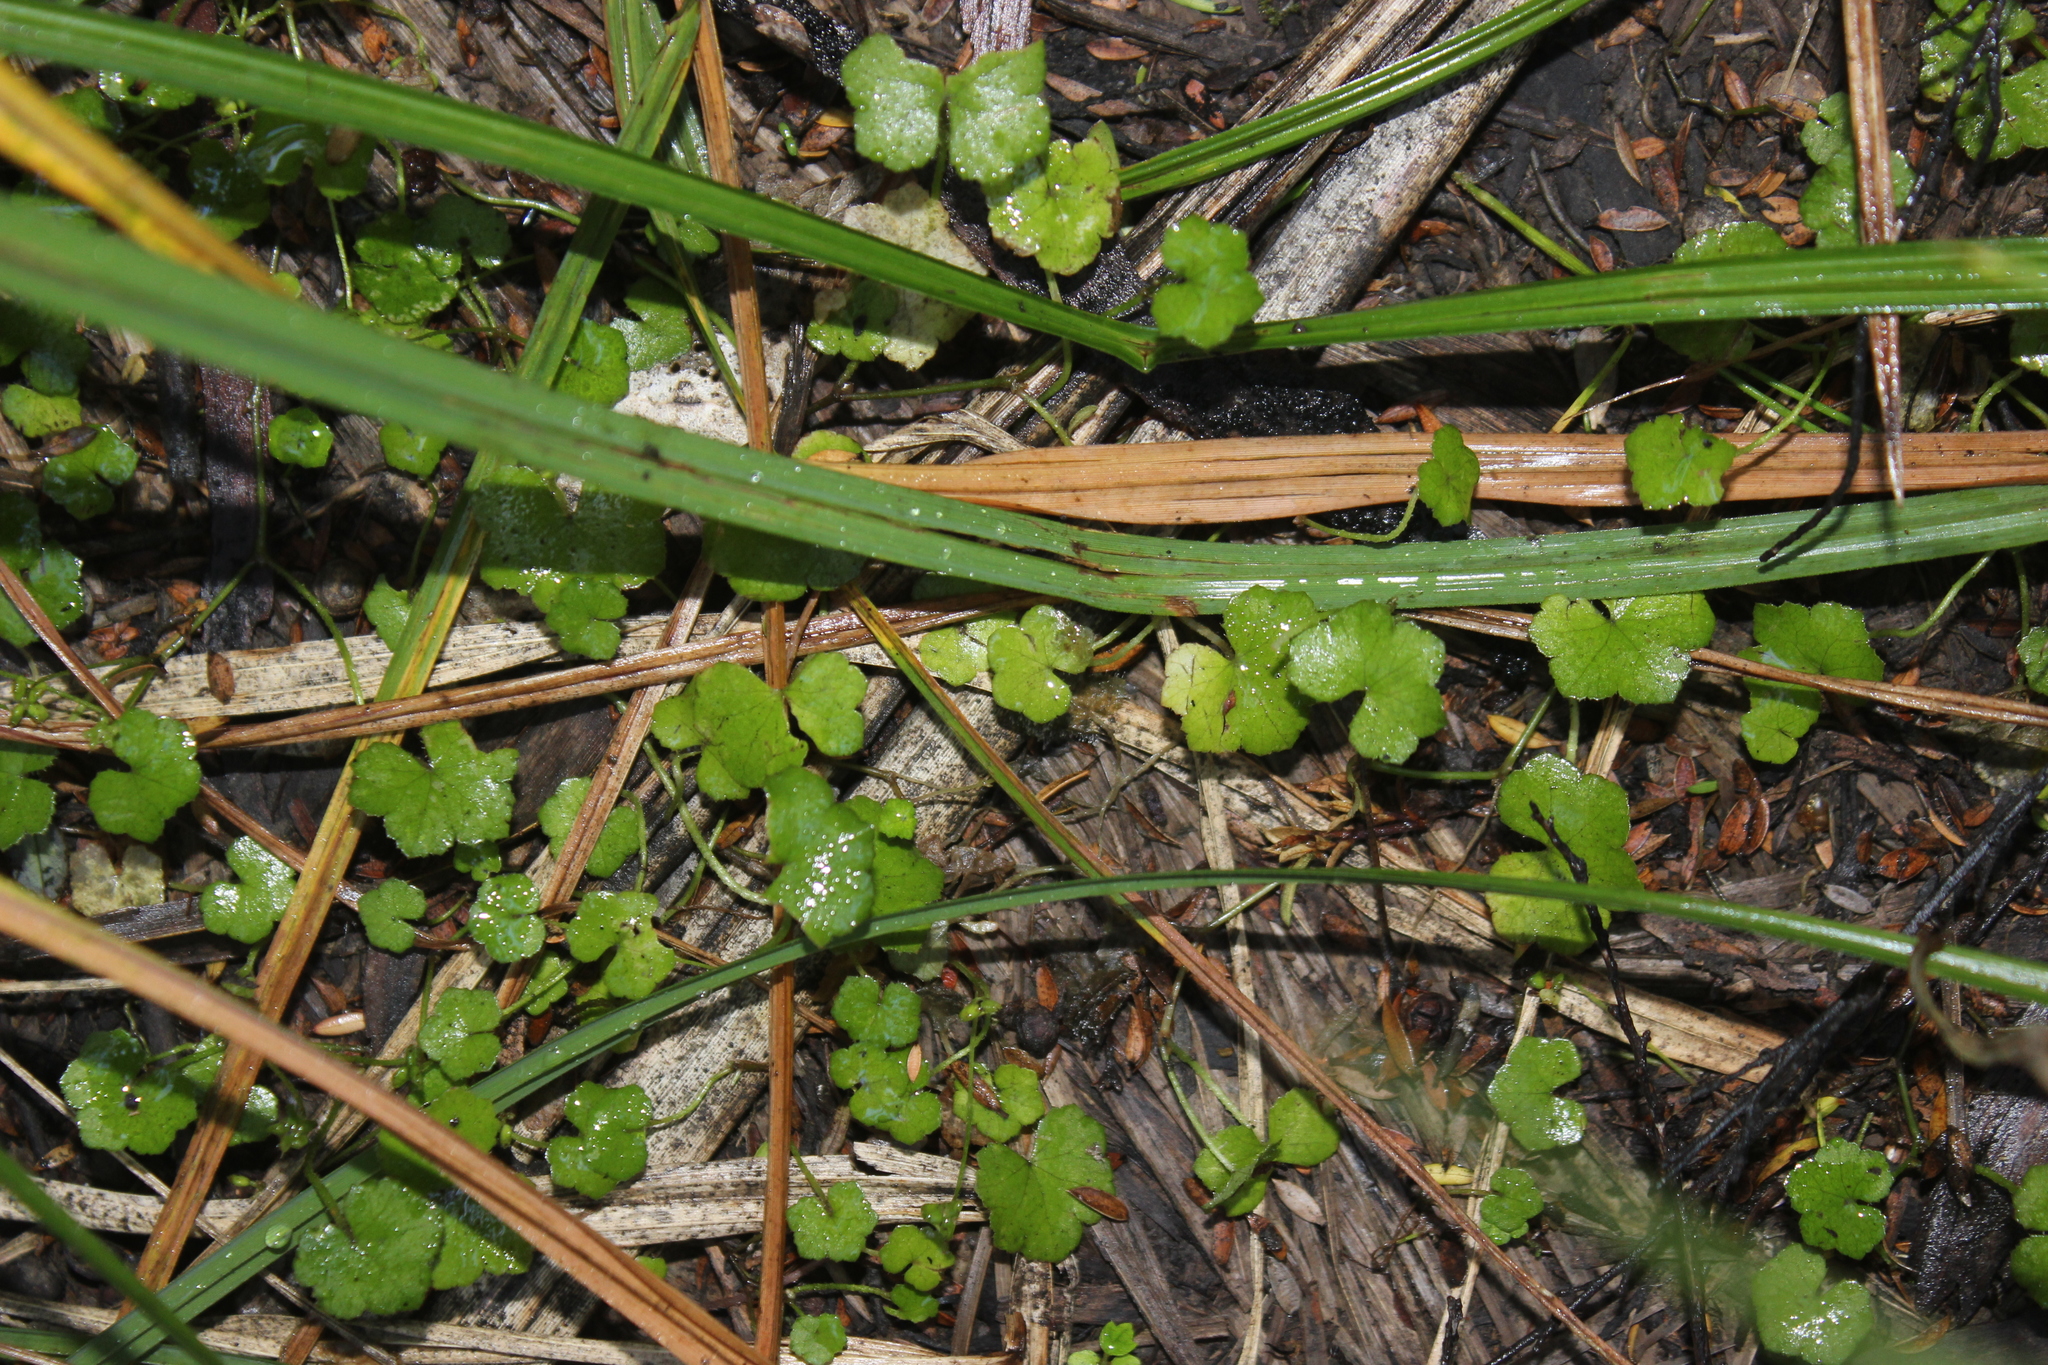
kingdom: Plantae
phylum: Tracheophyta
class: Magnoliopsida
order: Apiales
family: Araliaceae
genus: Hydrocotyle
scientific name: Hydrocotyle heteromeria
